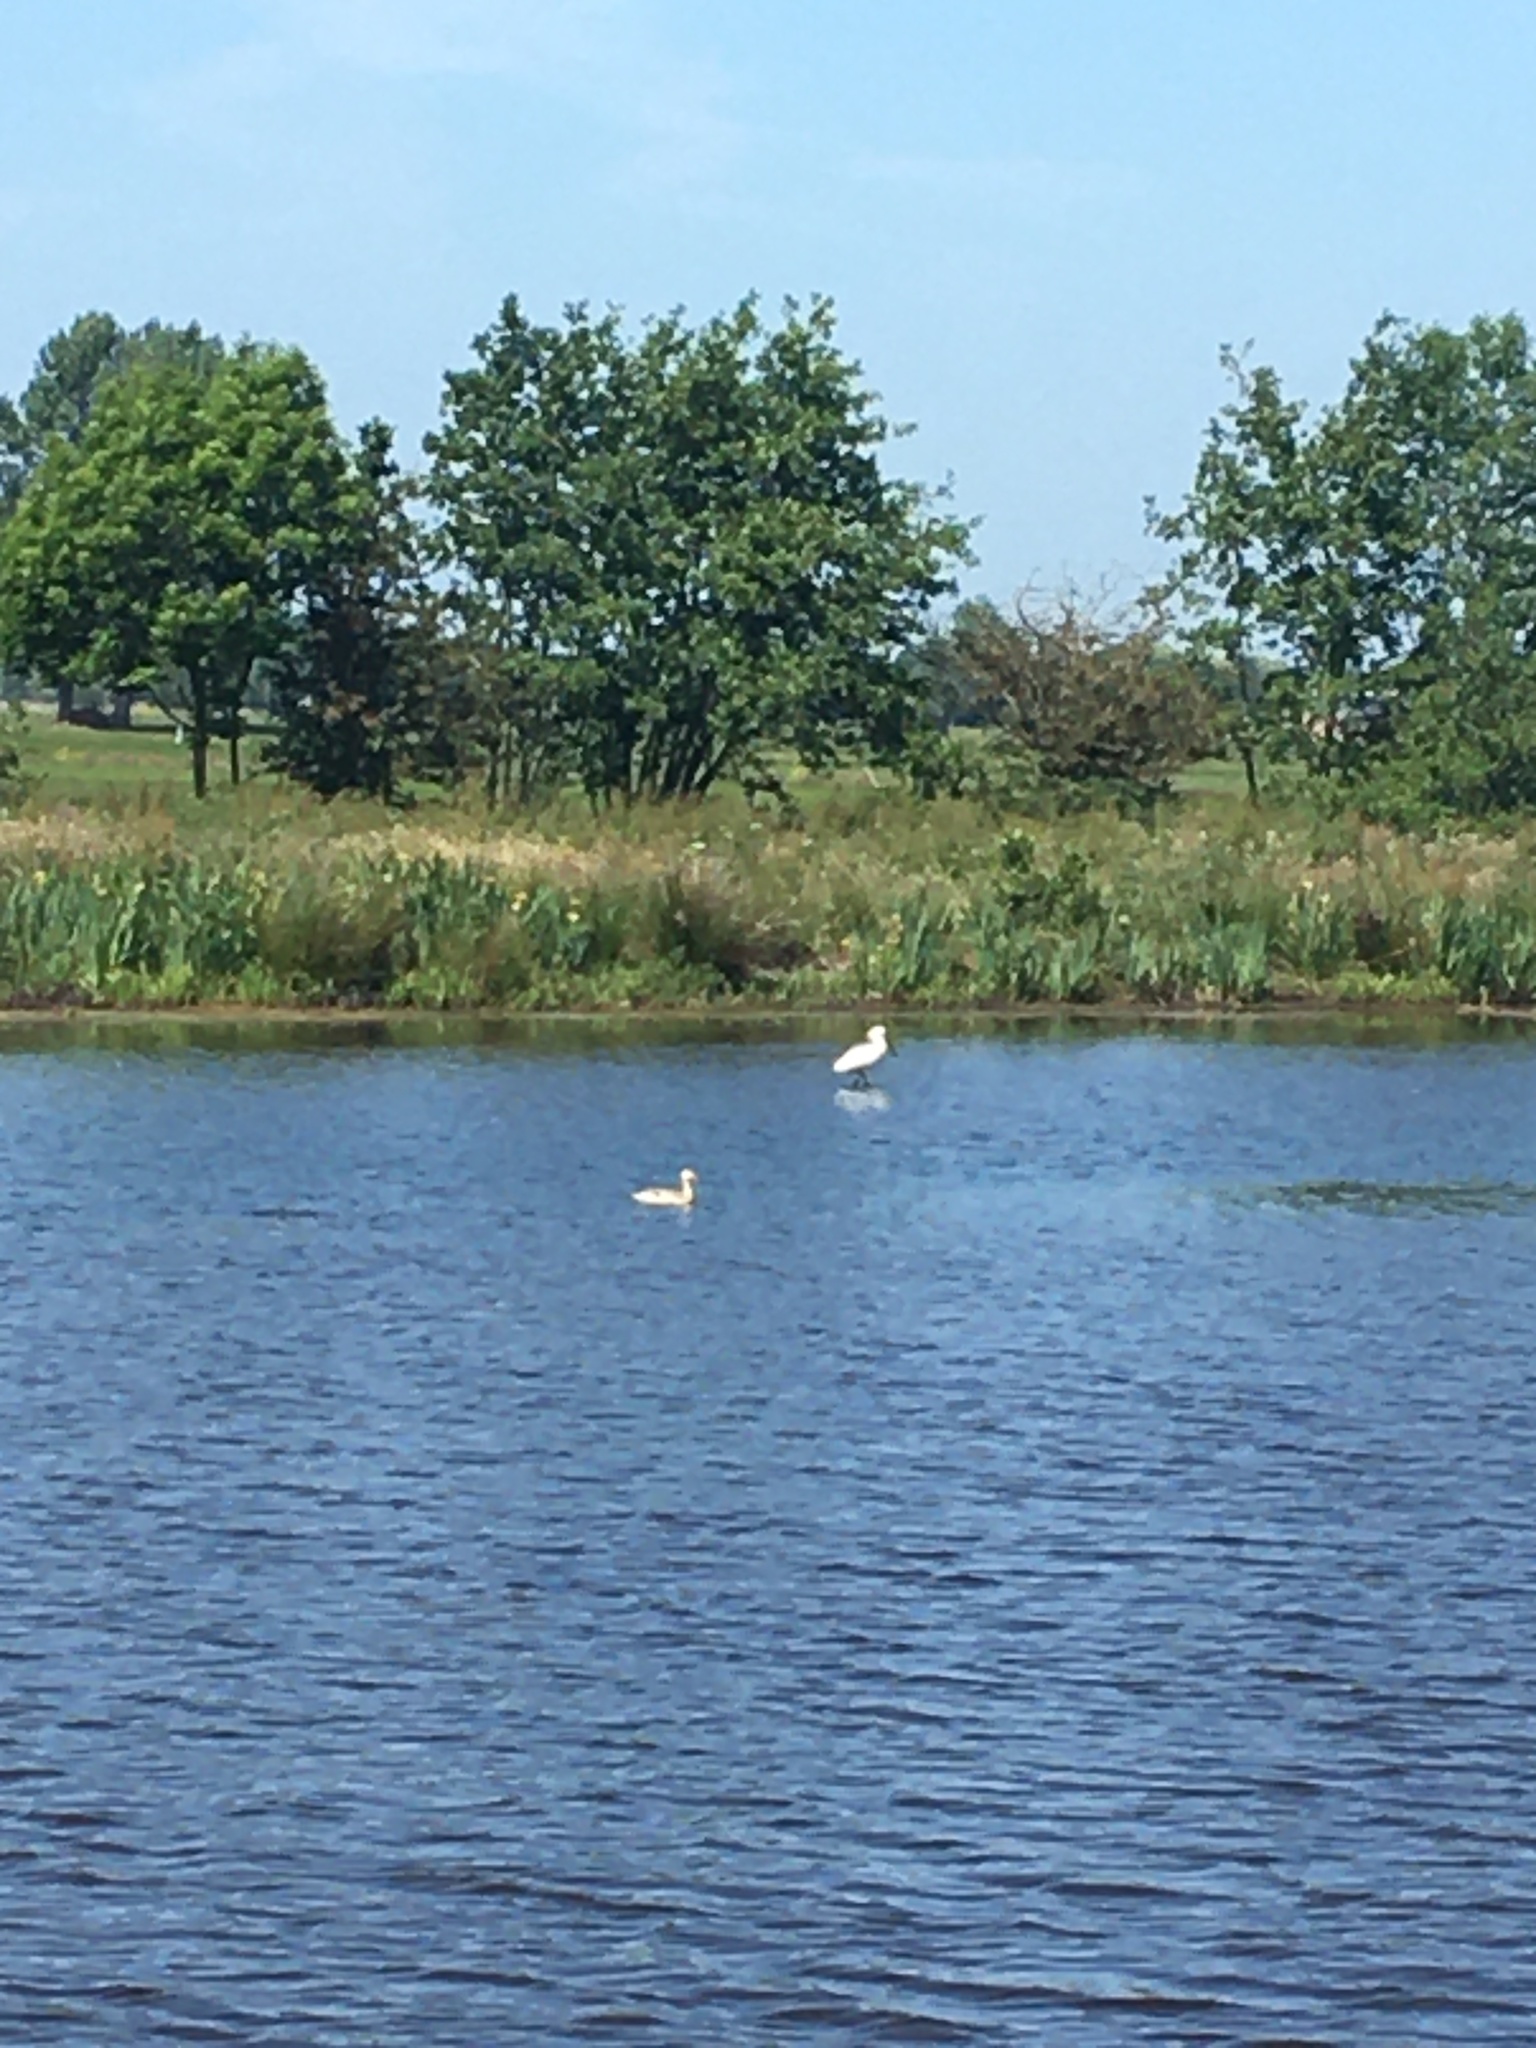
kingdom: Animalia
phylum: Chordata
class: Aves
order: Pelecaniformes
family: Threskiornithidae
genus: Platalea
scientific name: Platalea leucorodia
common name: Eurasian spoonbill
